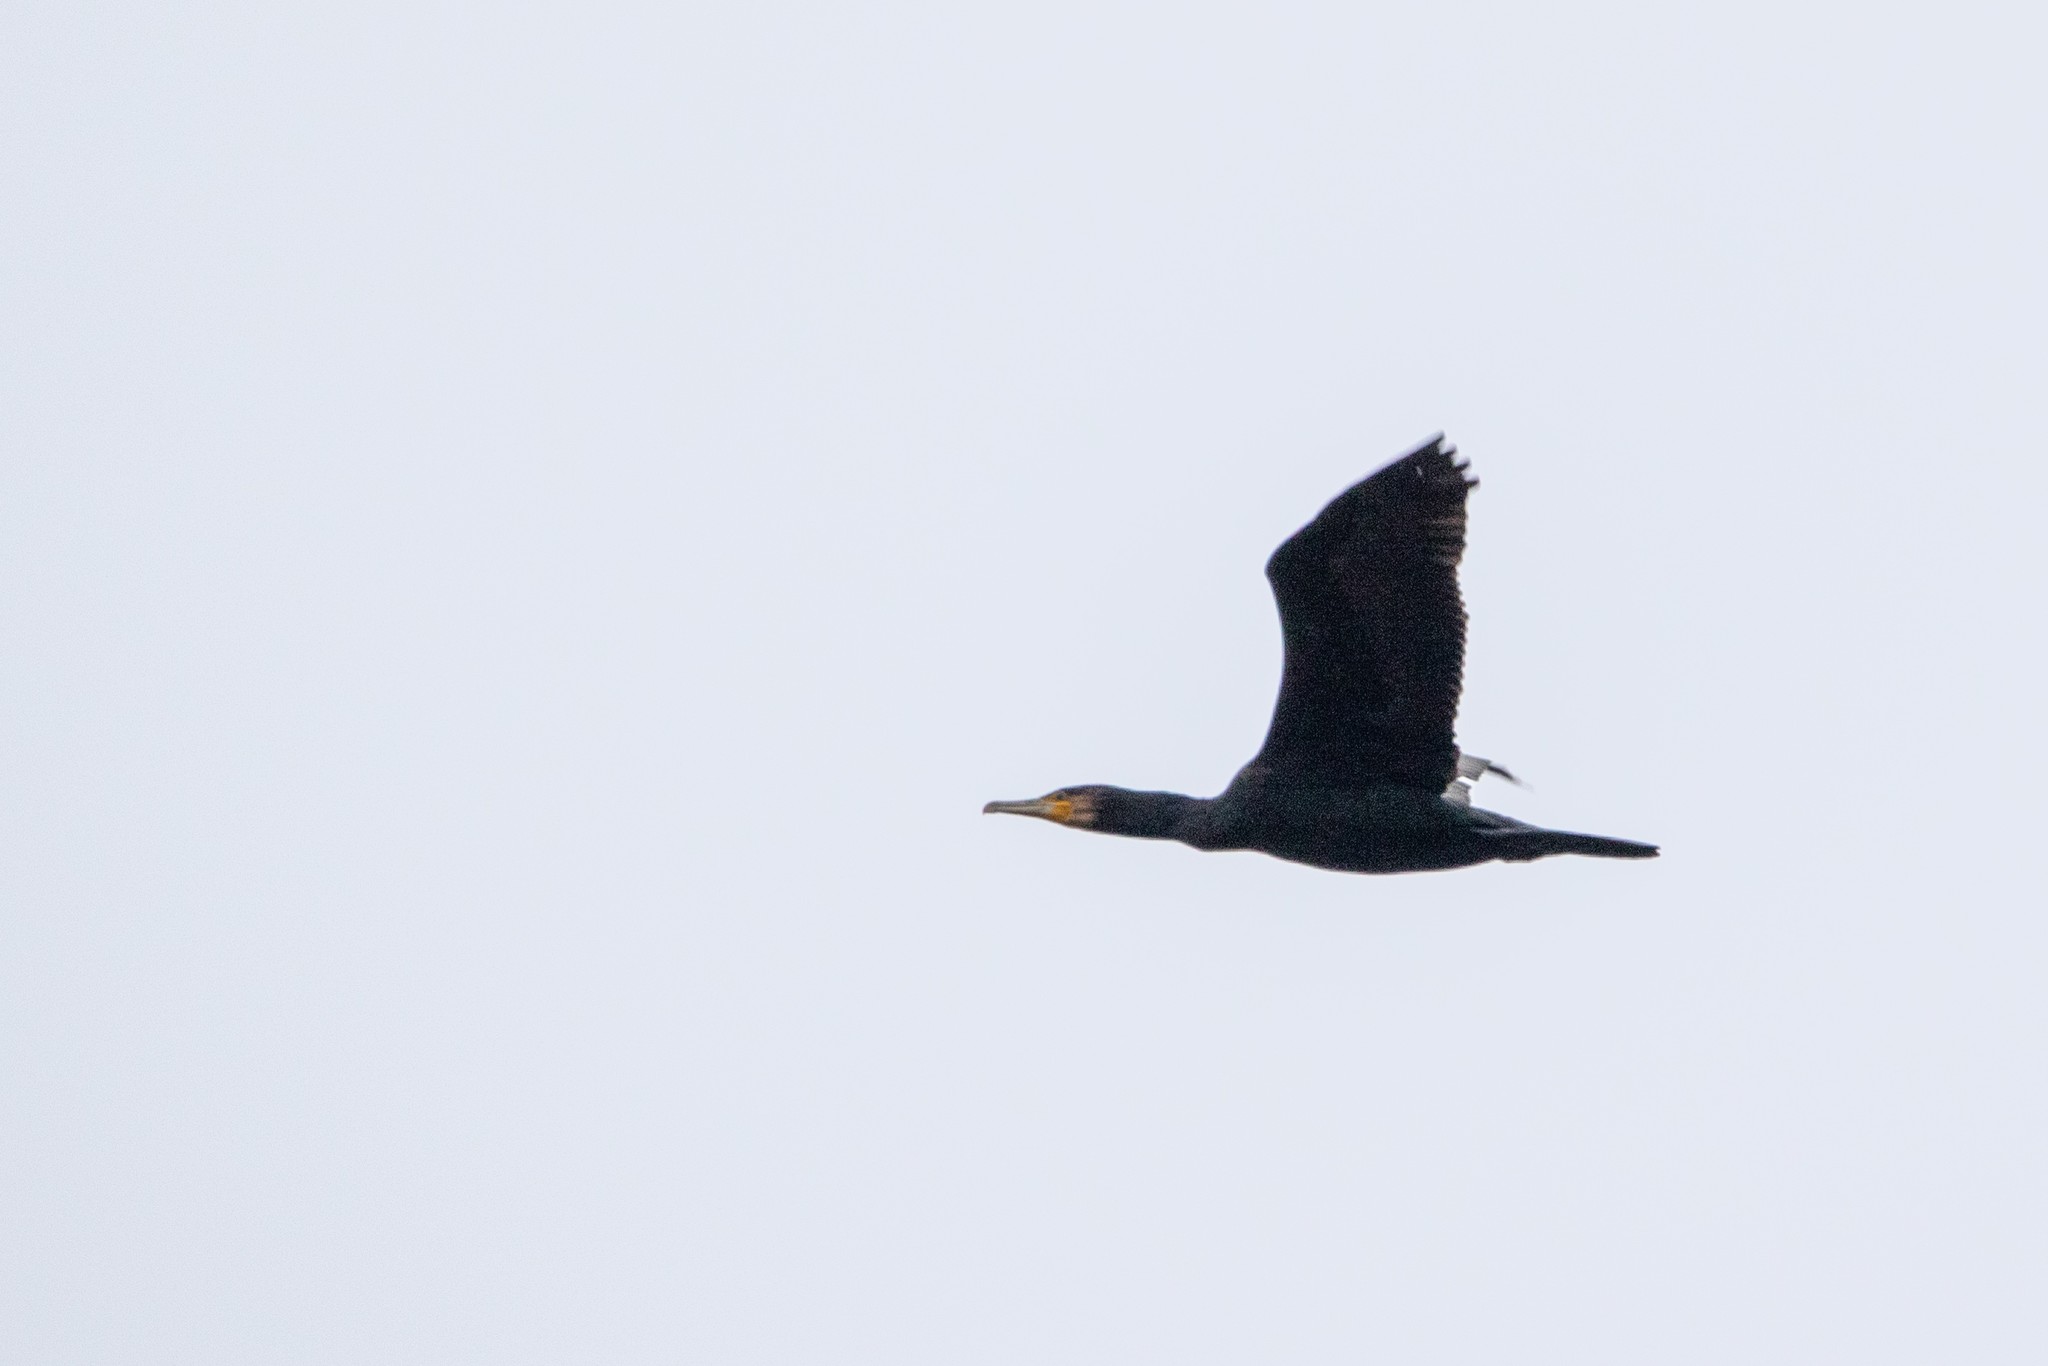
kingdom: Animalia
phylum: Chordata
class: Aves
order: Suliformes
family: Phalacrocoracidae
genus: Phalacrocorax
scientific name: Phalacrocorax carbo
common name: Great cormorant
